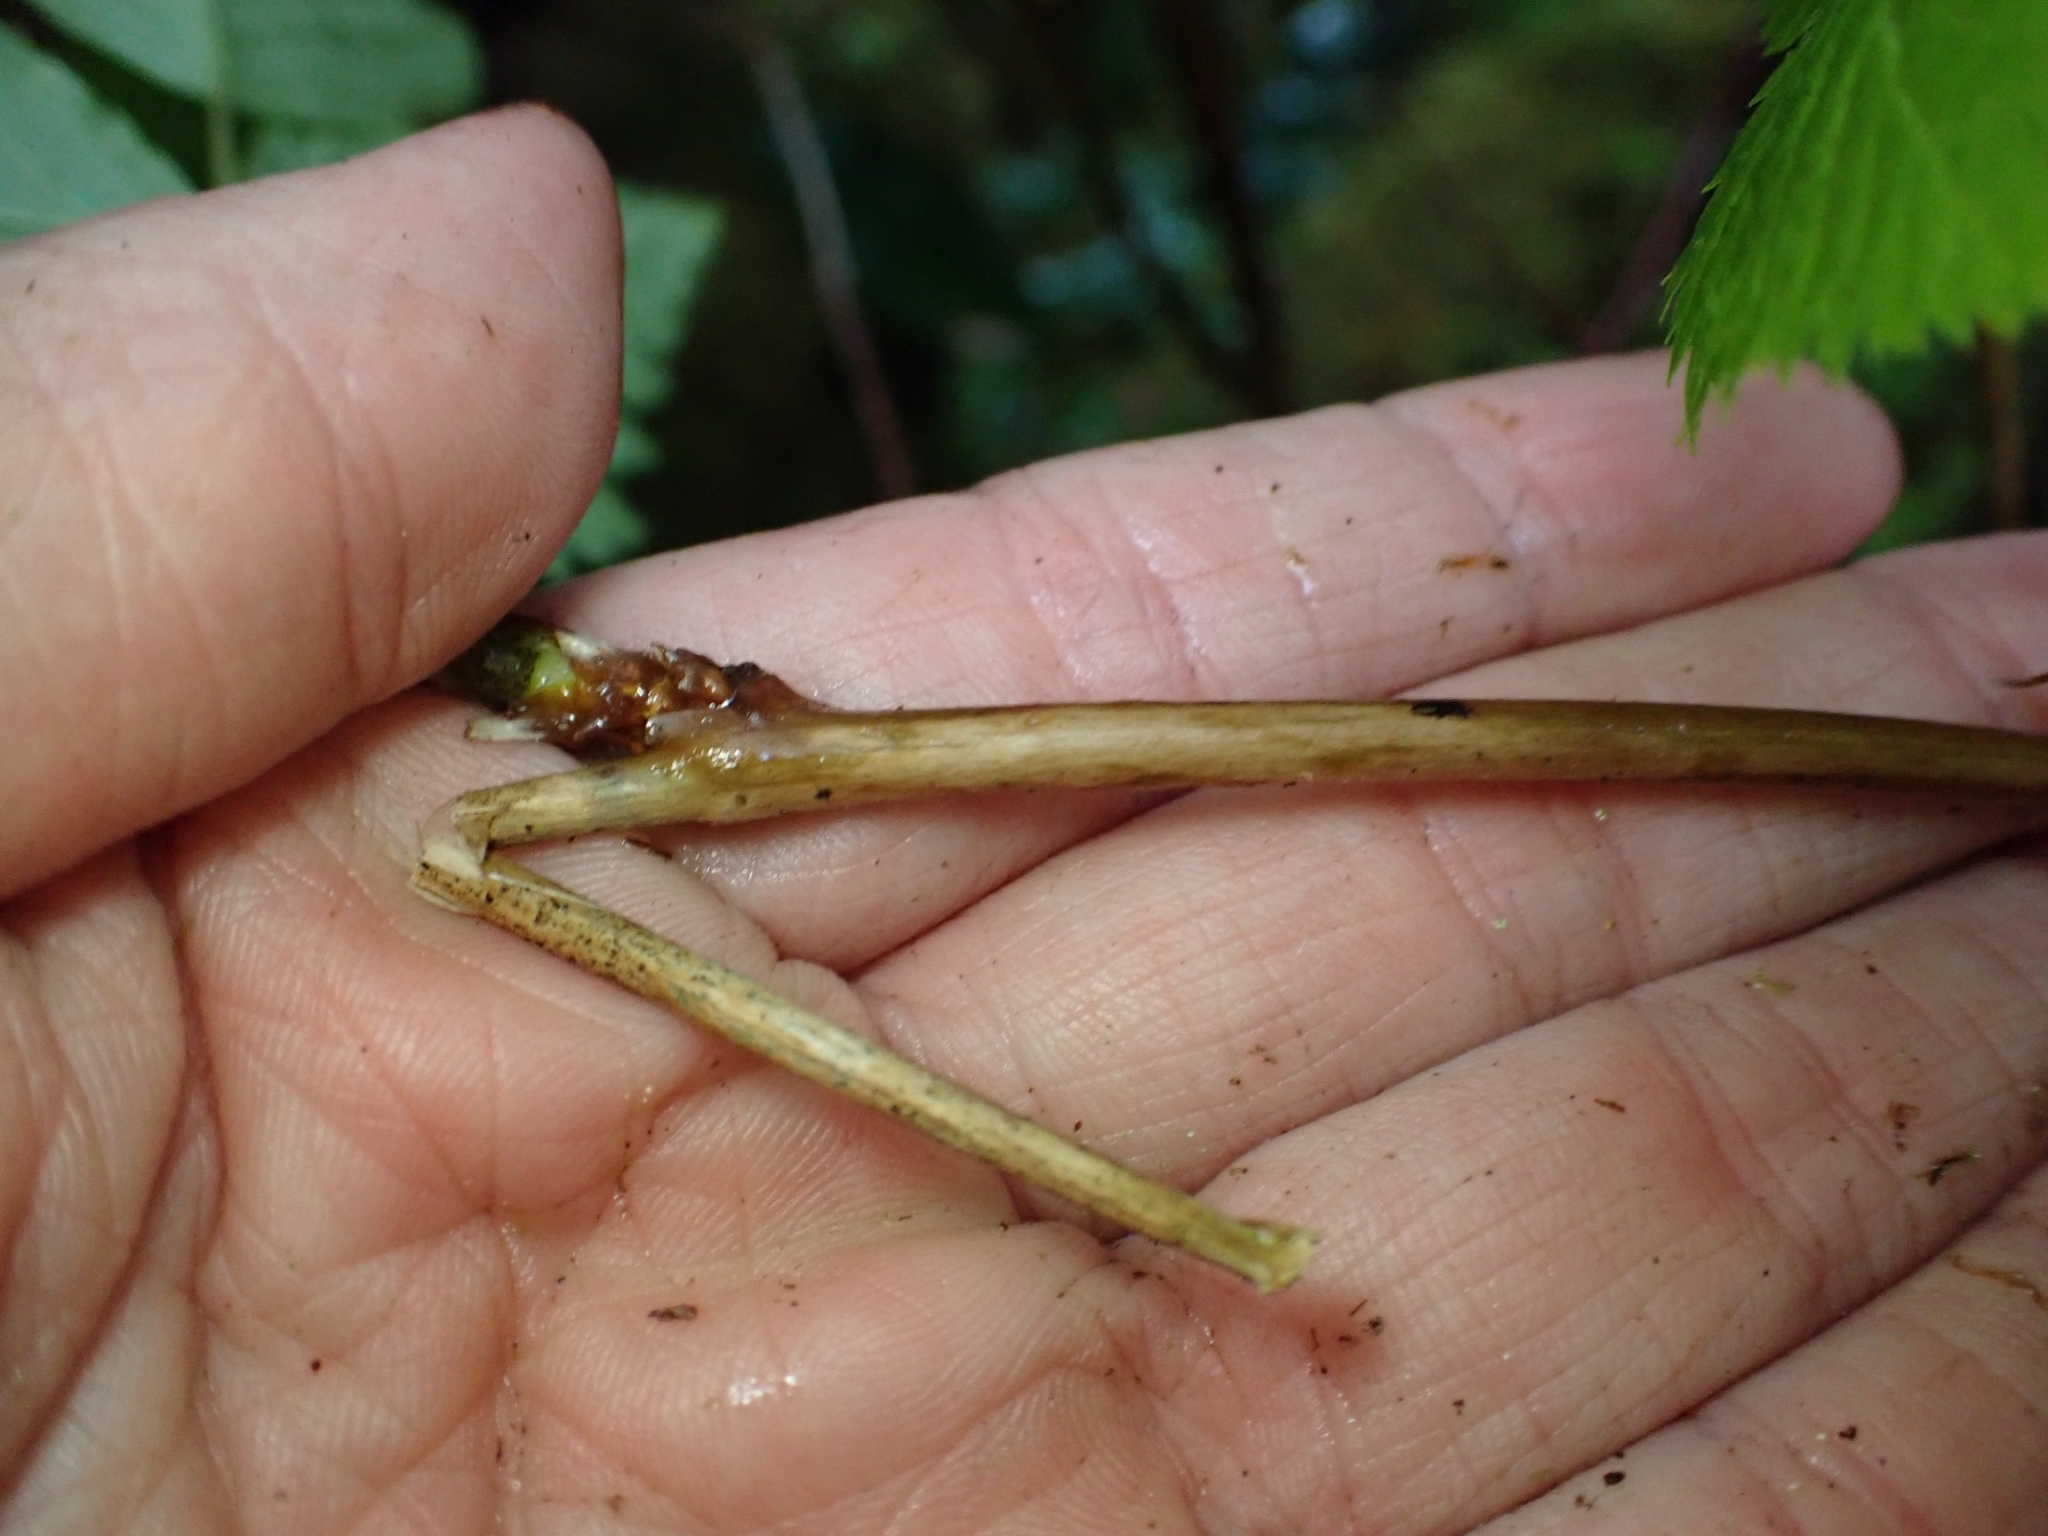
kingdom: Plantae
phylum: Tracheophyta
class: Magnoliopsida
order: Rosales
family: Rosaceae
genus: Rubus
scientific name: Rubus spectabilis
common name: Salmonberry
